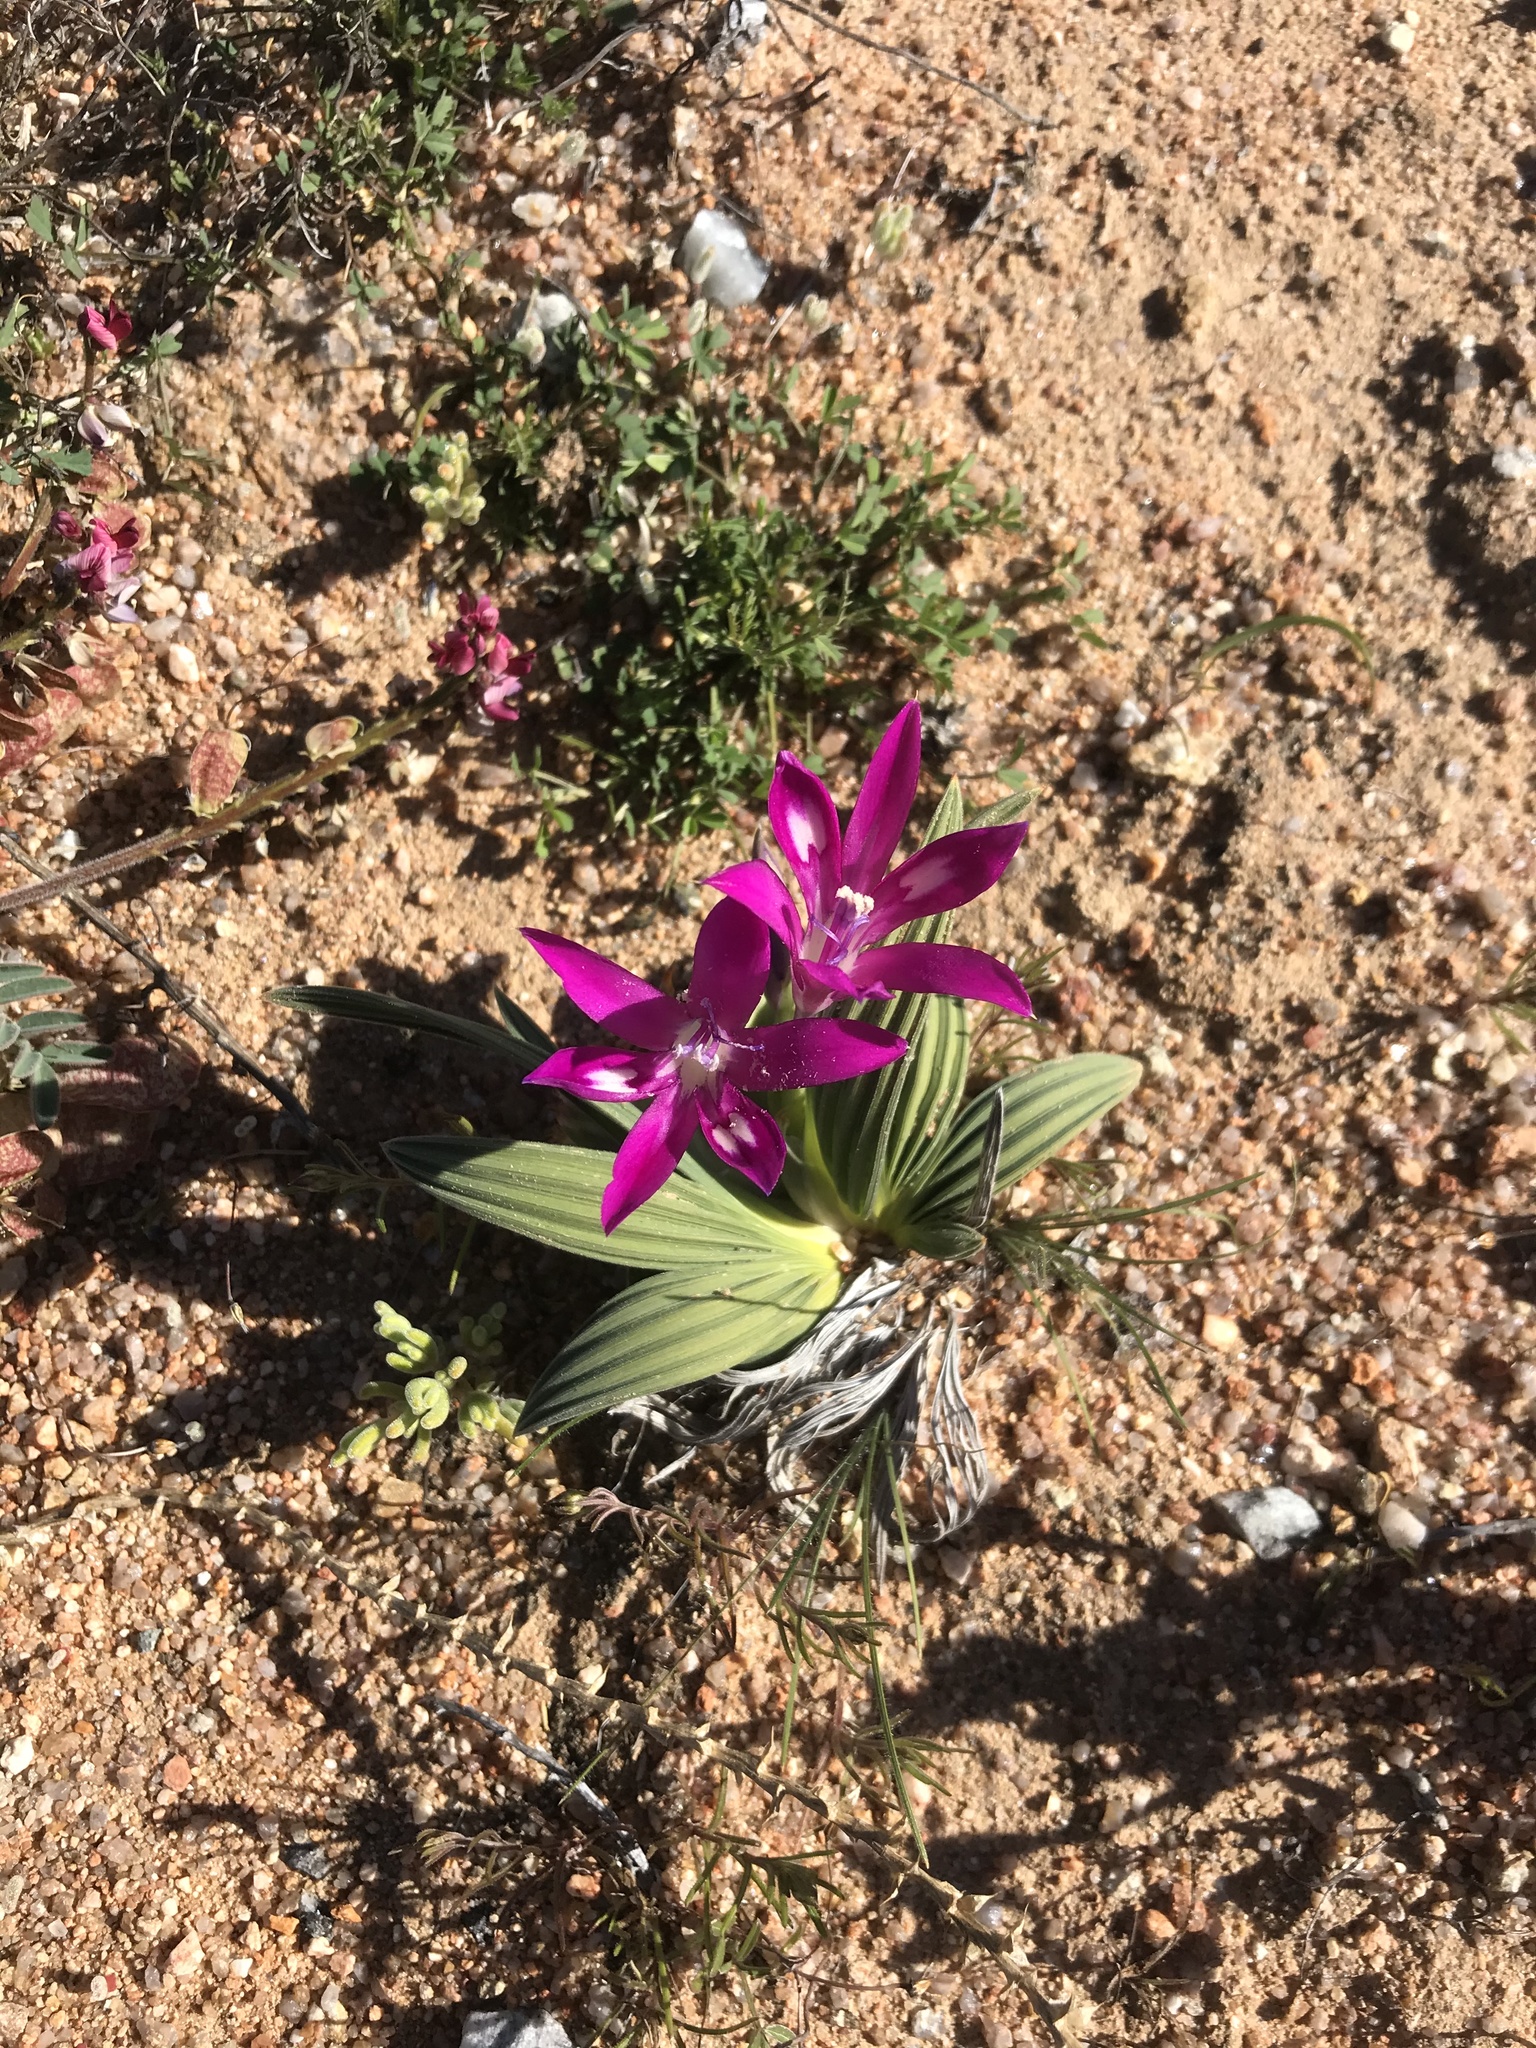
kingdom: Plantae
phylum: Tracheophyta
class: Liliopsida
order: Asparagales
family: Iridaceae
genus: Babiana
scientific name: Babiana curviscapa
